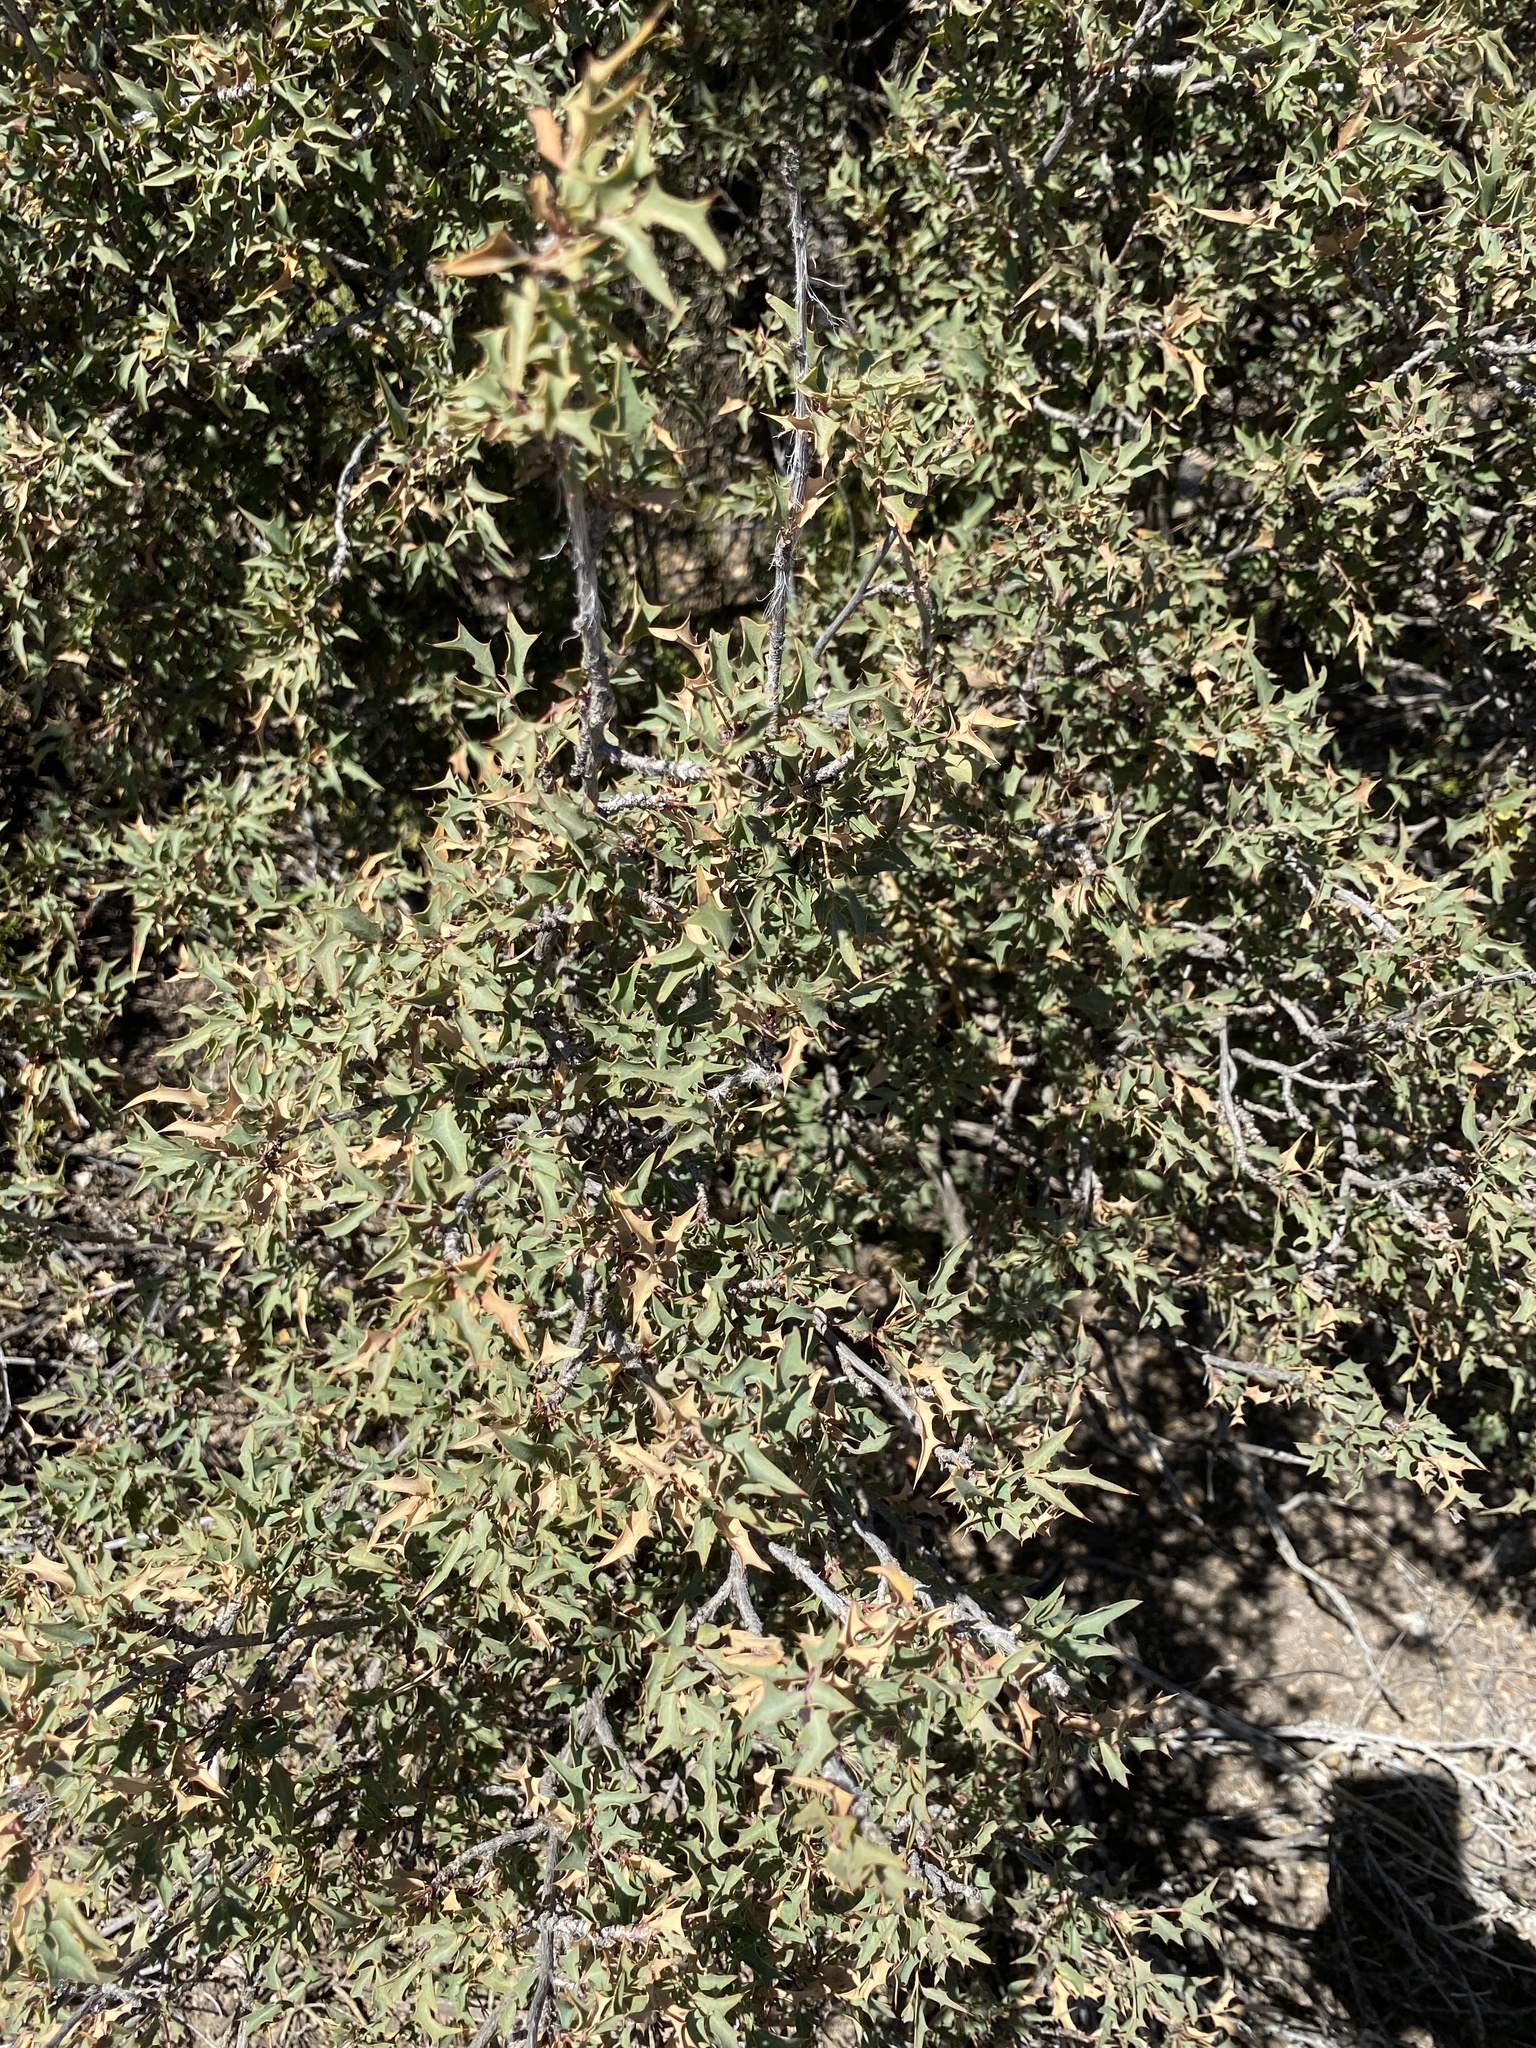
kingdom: Plantae
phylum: Tracheophyta
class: Magnoliopsida
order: Ranunculales
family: Berberidaceae
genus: Alloberberis
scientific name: Alloberberis haematocarpa
